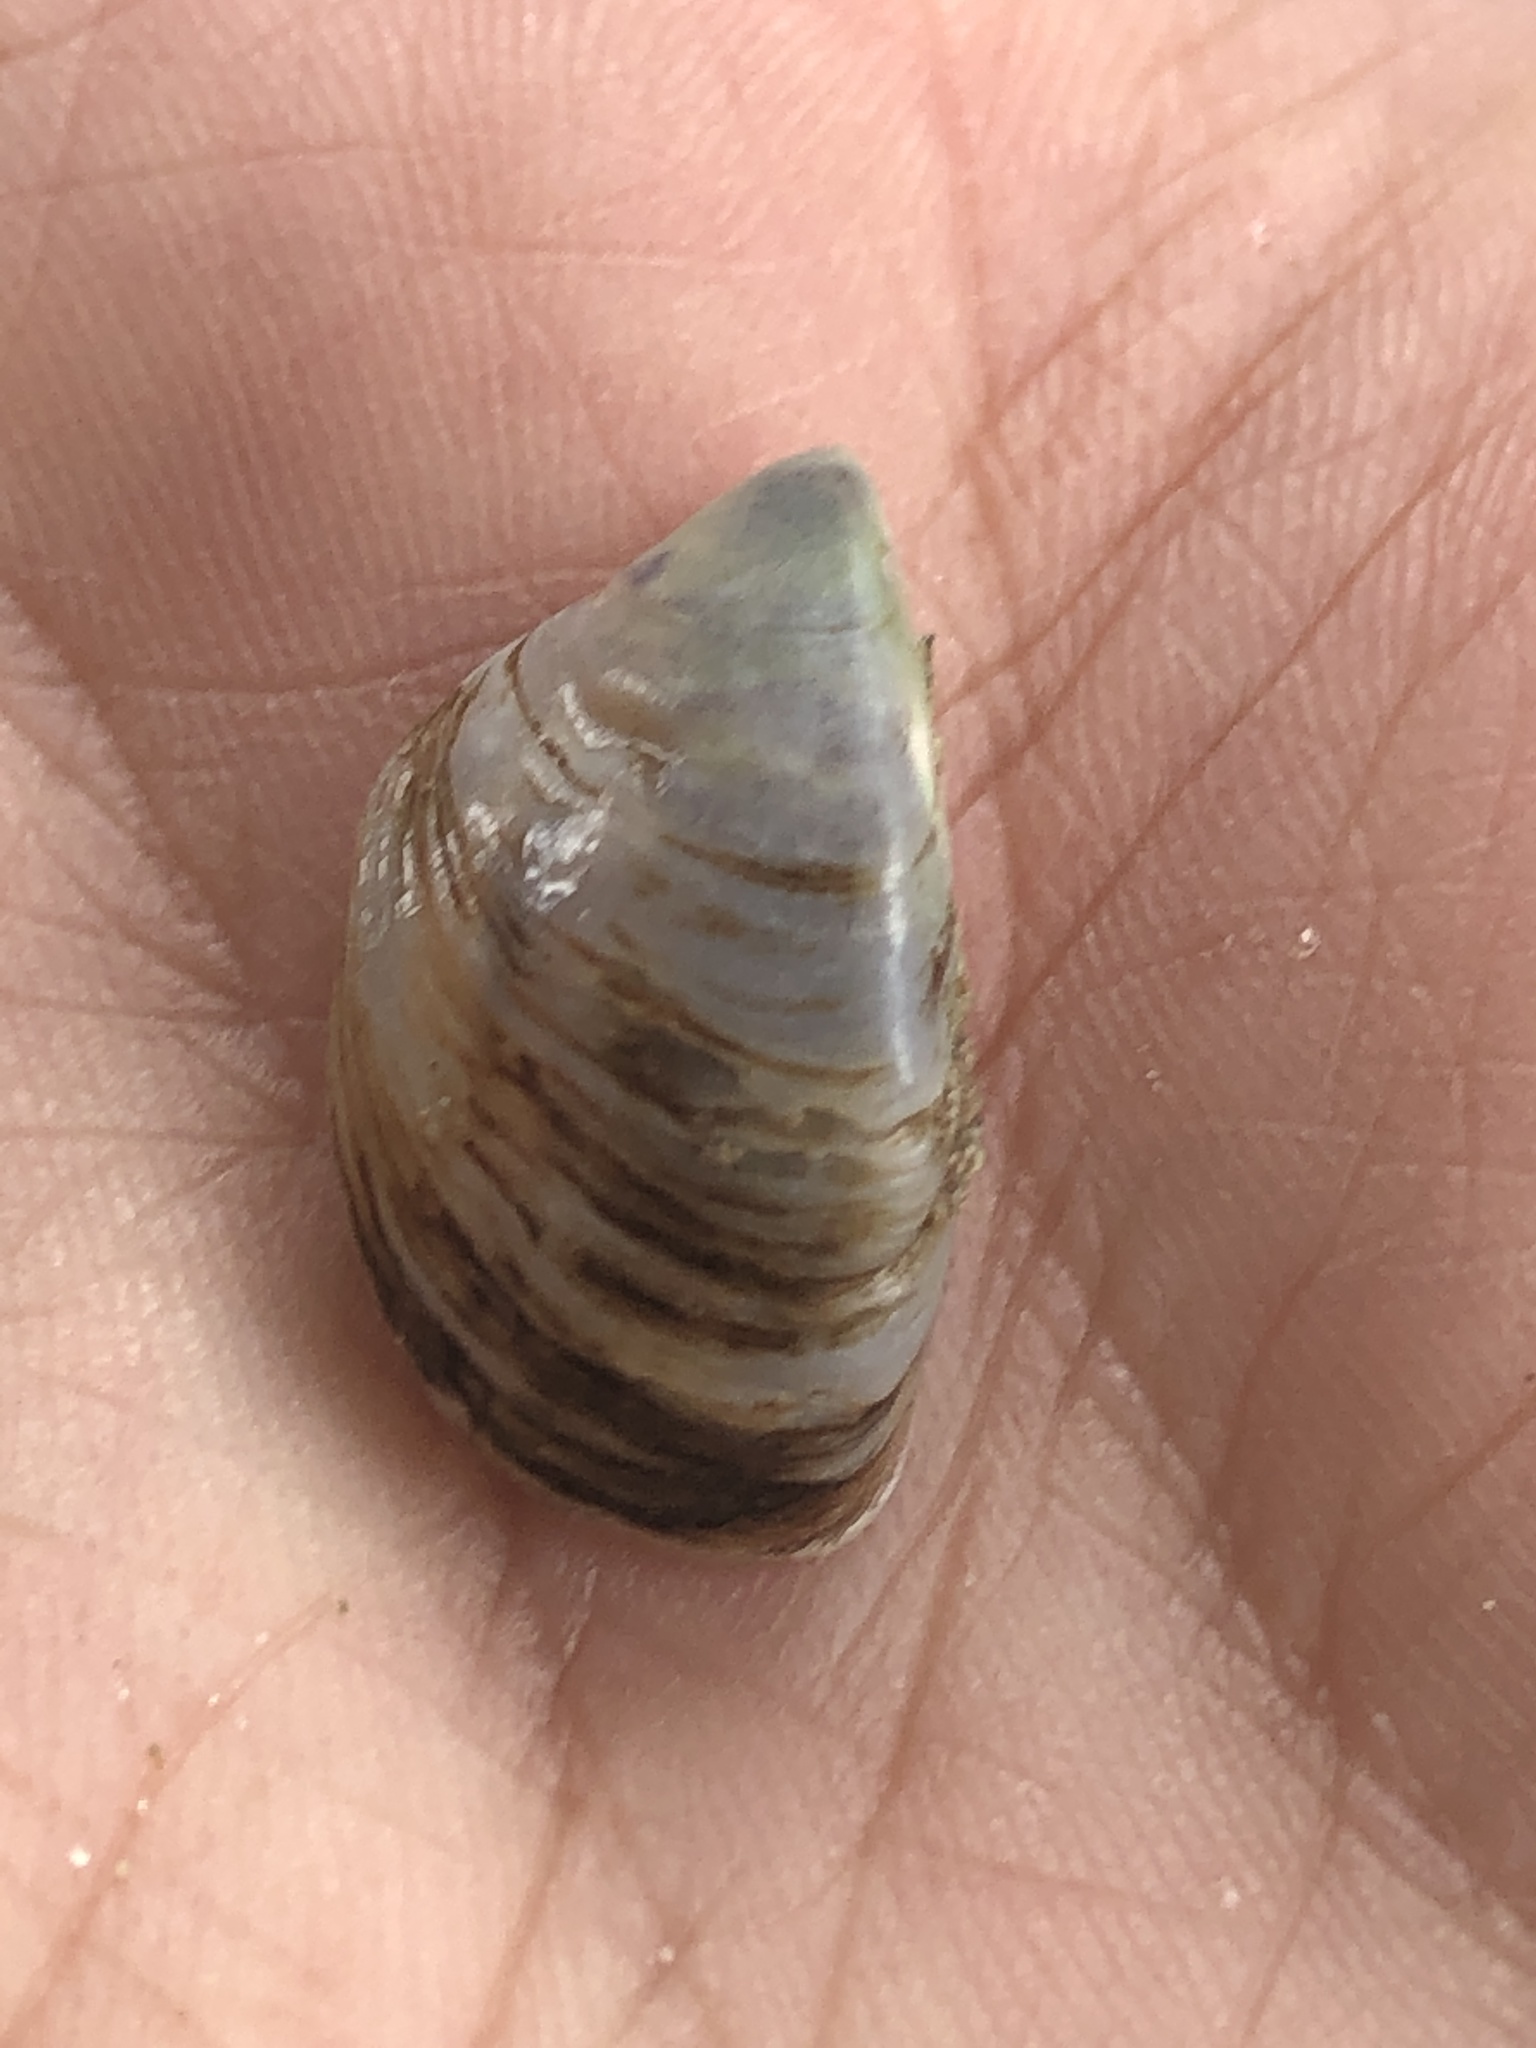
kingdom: Animalia
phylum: Mollusca
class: Bivalvia
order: Myida
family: Dreissenidae
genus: Dreissena
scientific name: Dreissena polymorpha
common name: Zebra mussel
